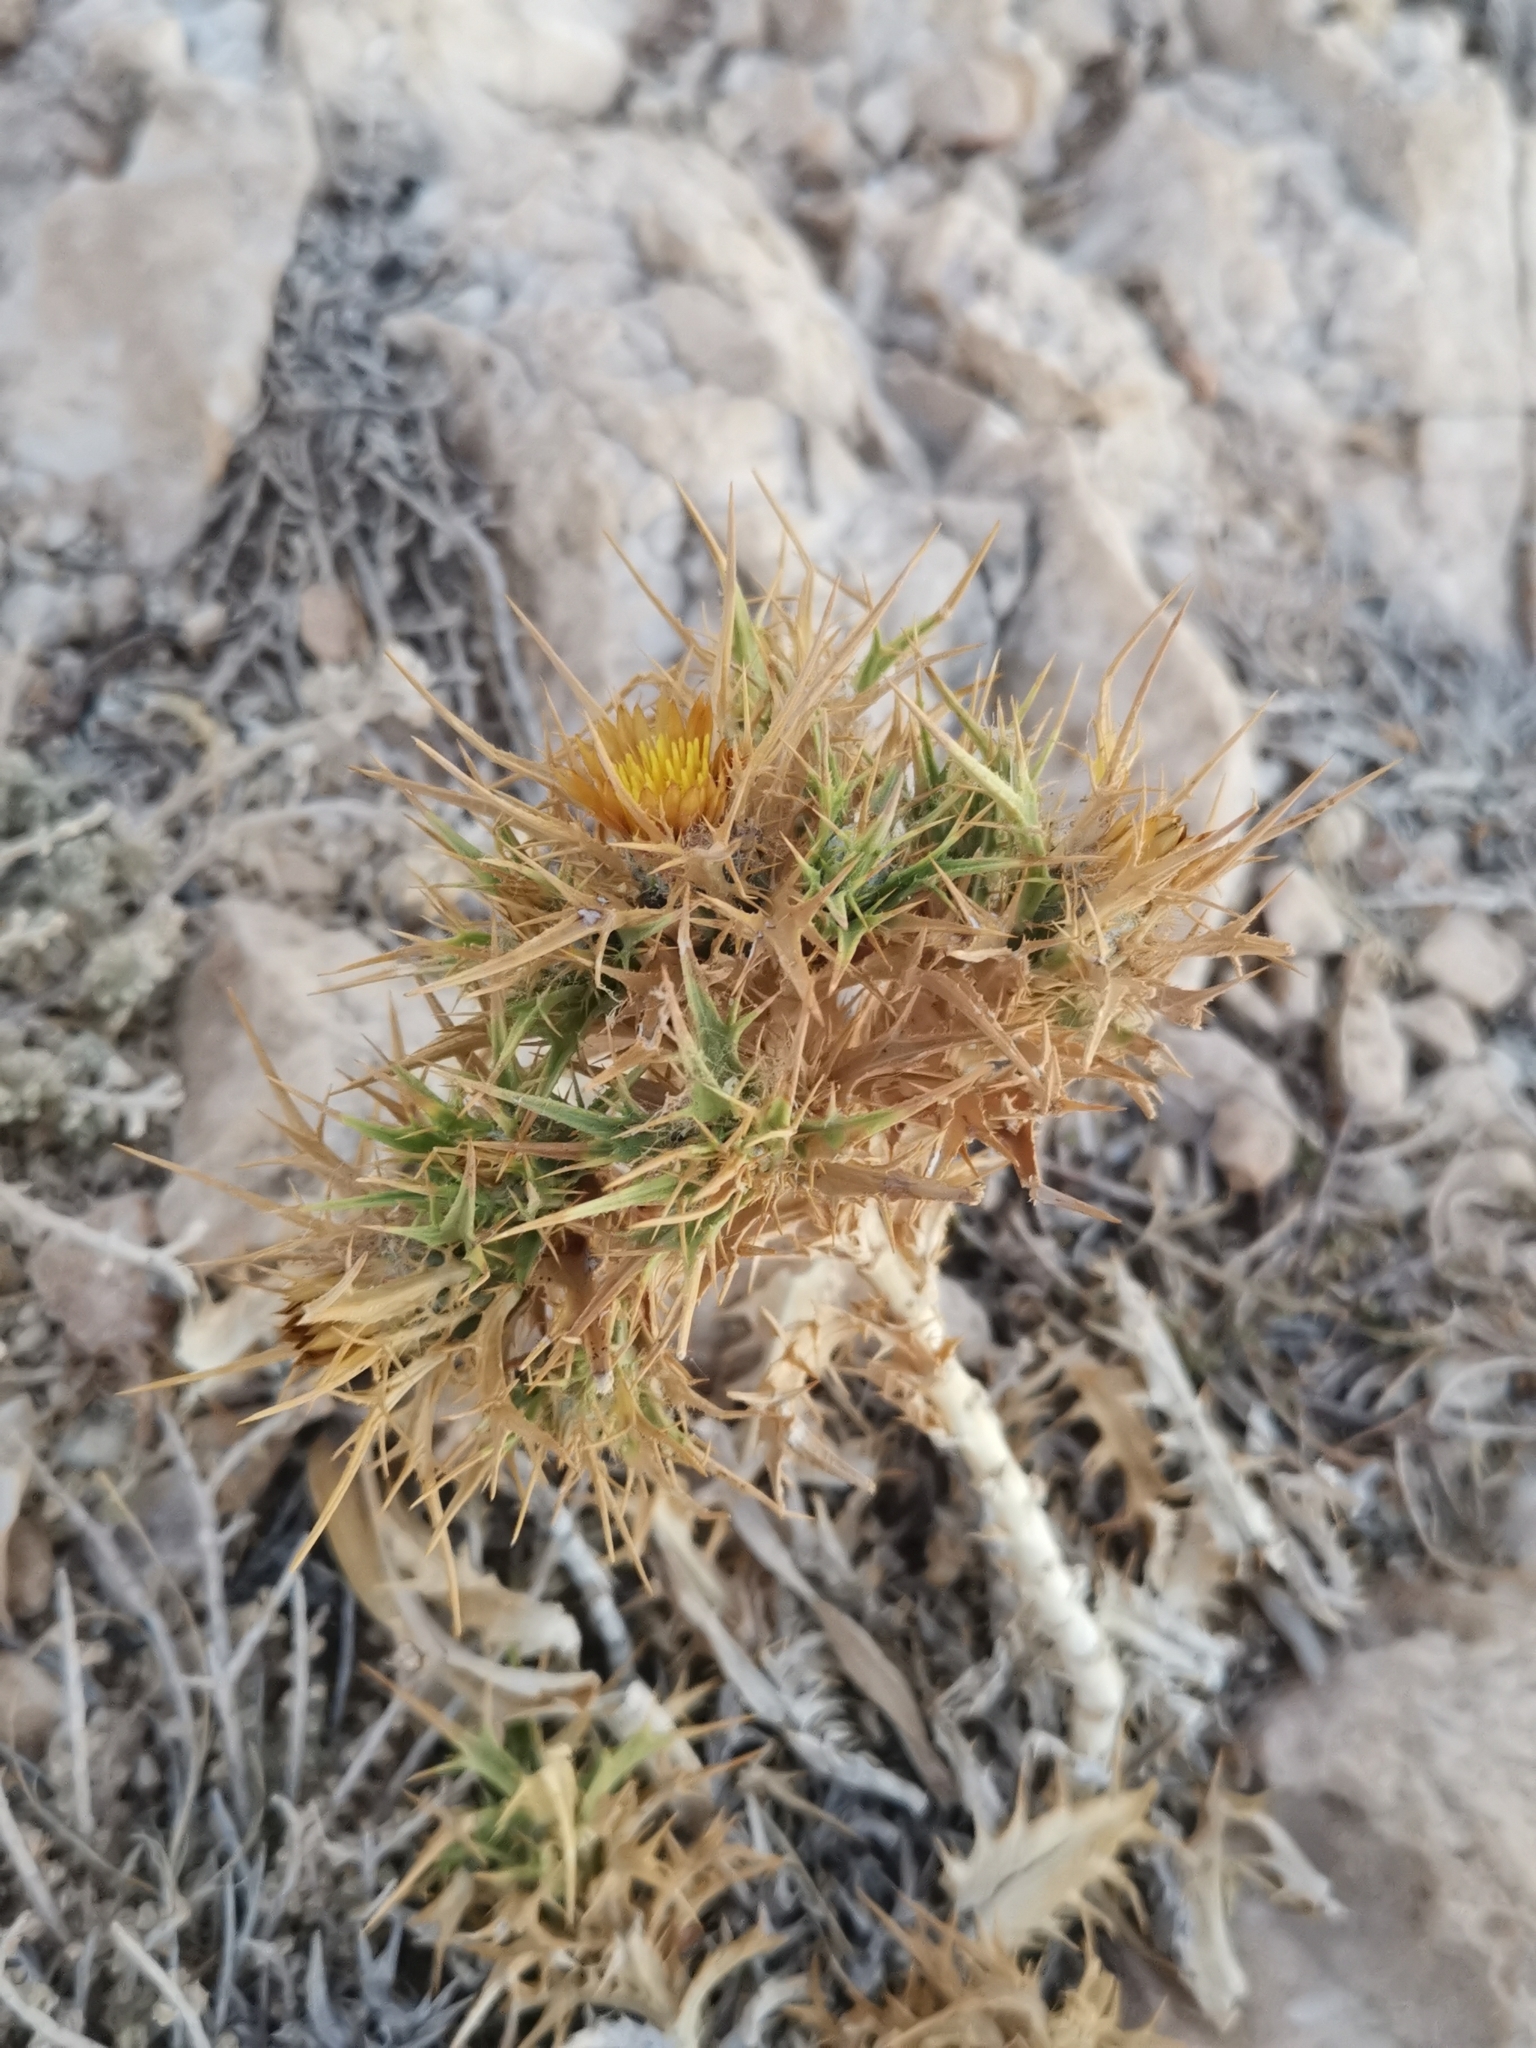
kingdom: Plantae
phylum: Tracheophyta
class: Magnoliopsida
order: Asterales
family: Asteraceae
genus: Carlina
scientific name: Carlina graeca
